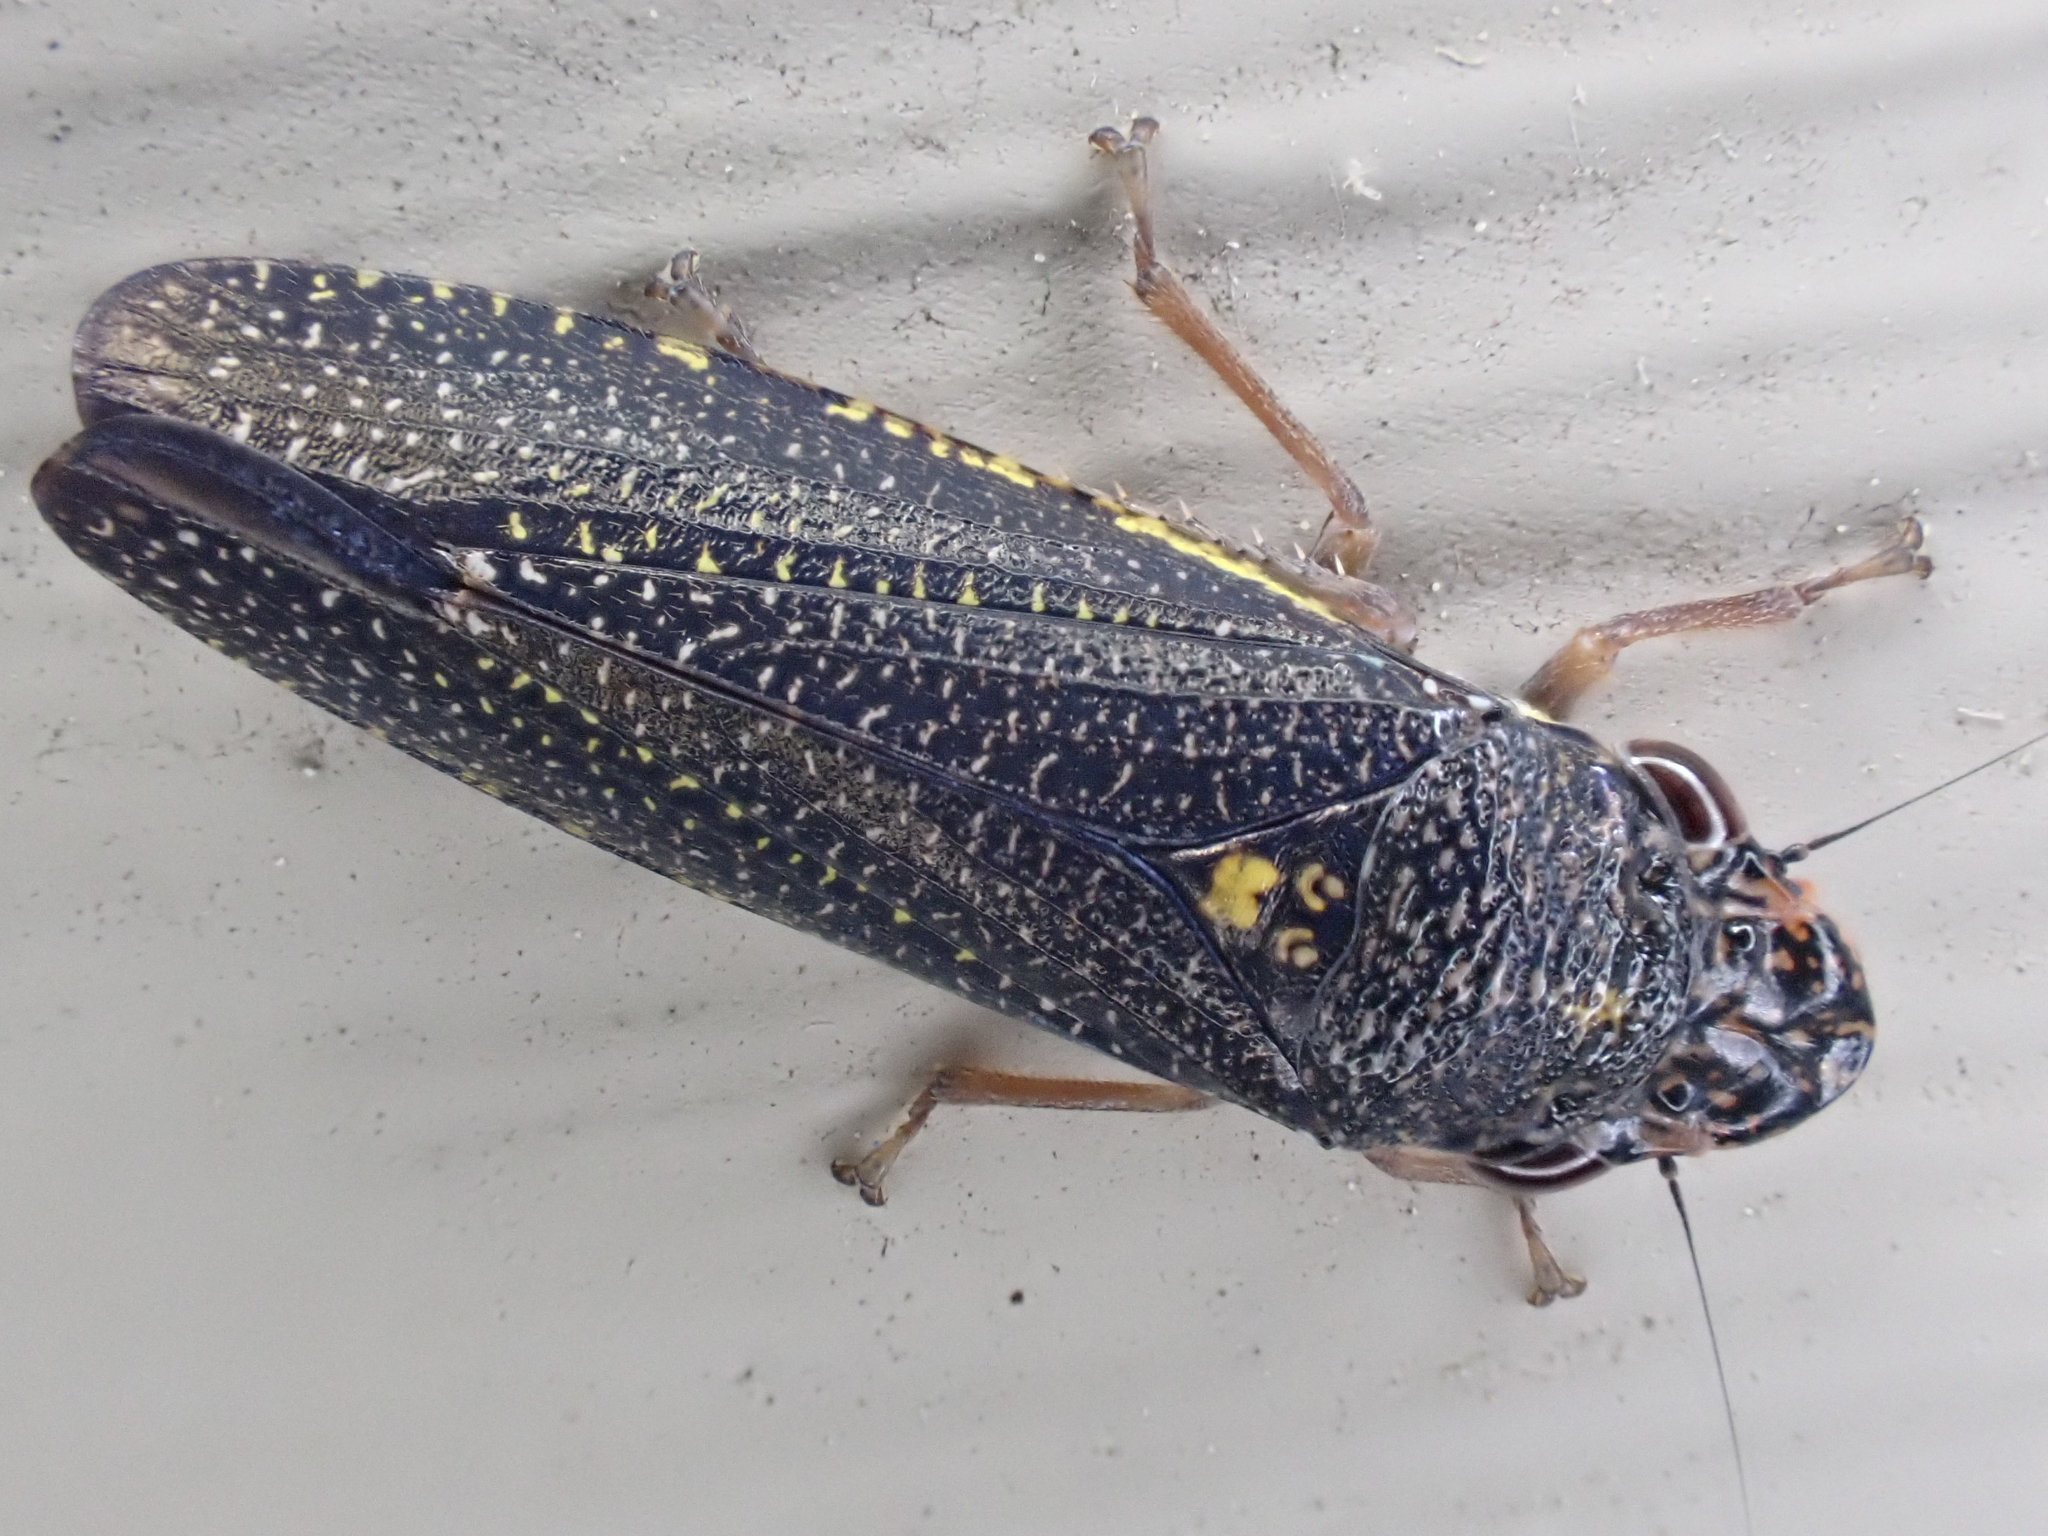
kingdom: Animalia
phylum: Arthropoda
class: Insecta
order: Hemiptera
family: Cicadellidae
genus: Paraulacizes
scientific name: Paraulacizes irrorata
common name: Speckled sharpshooter
